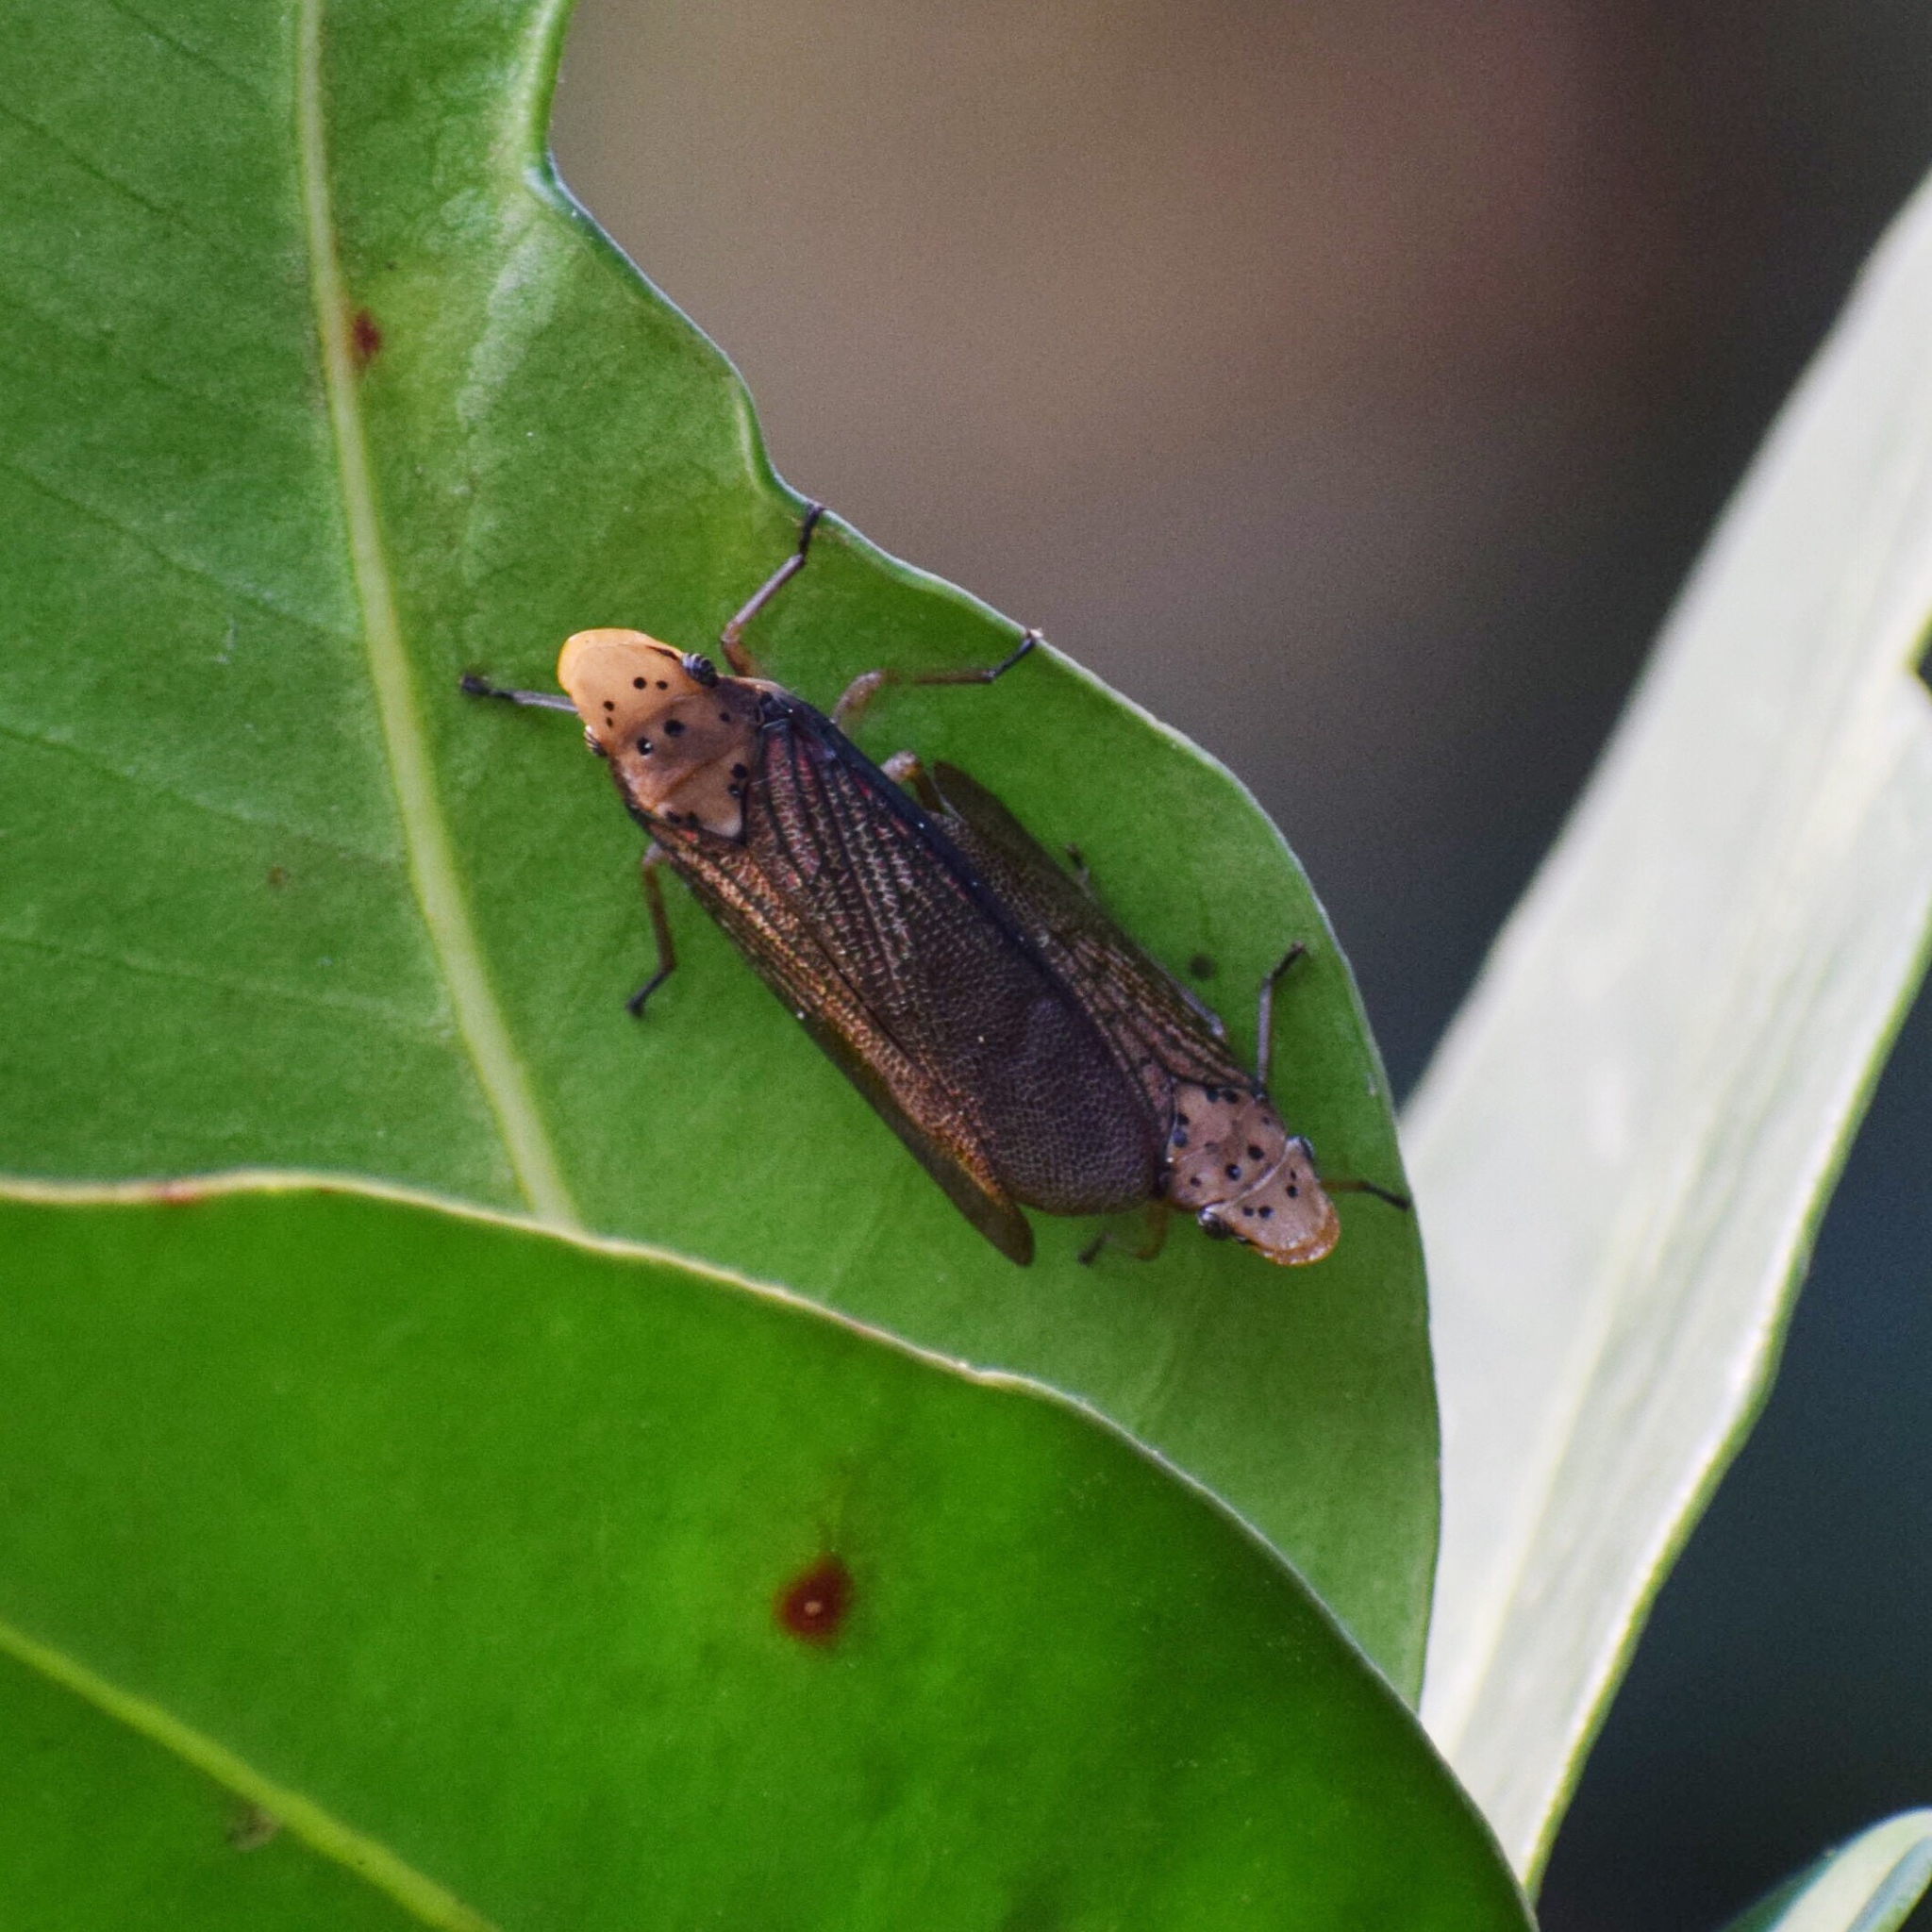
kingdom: Animalia
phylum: Arthropoda
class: Insecta
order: Hemiptera
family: Fulgoridae
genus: Xosophara
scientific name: Xosophara guttata
